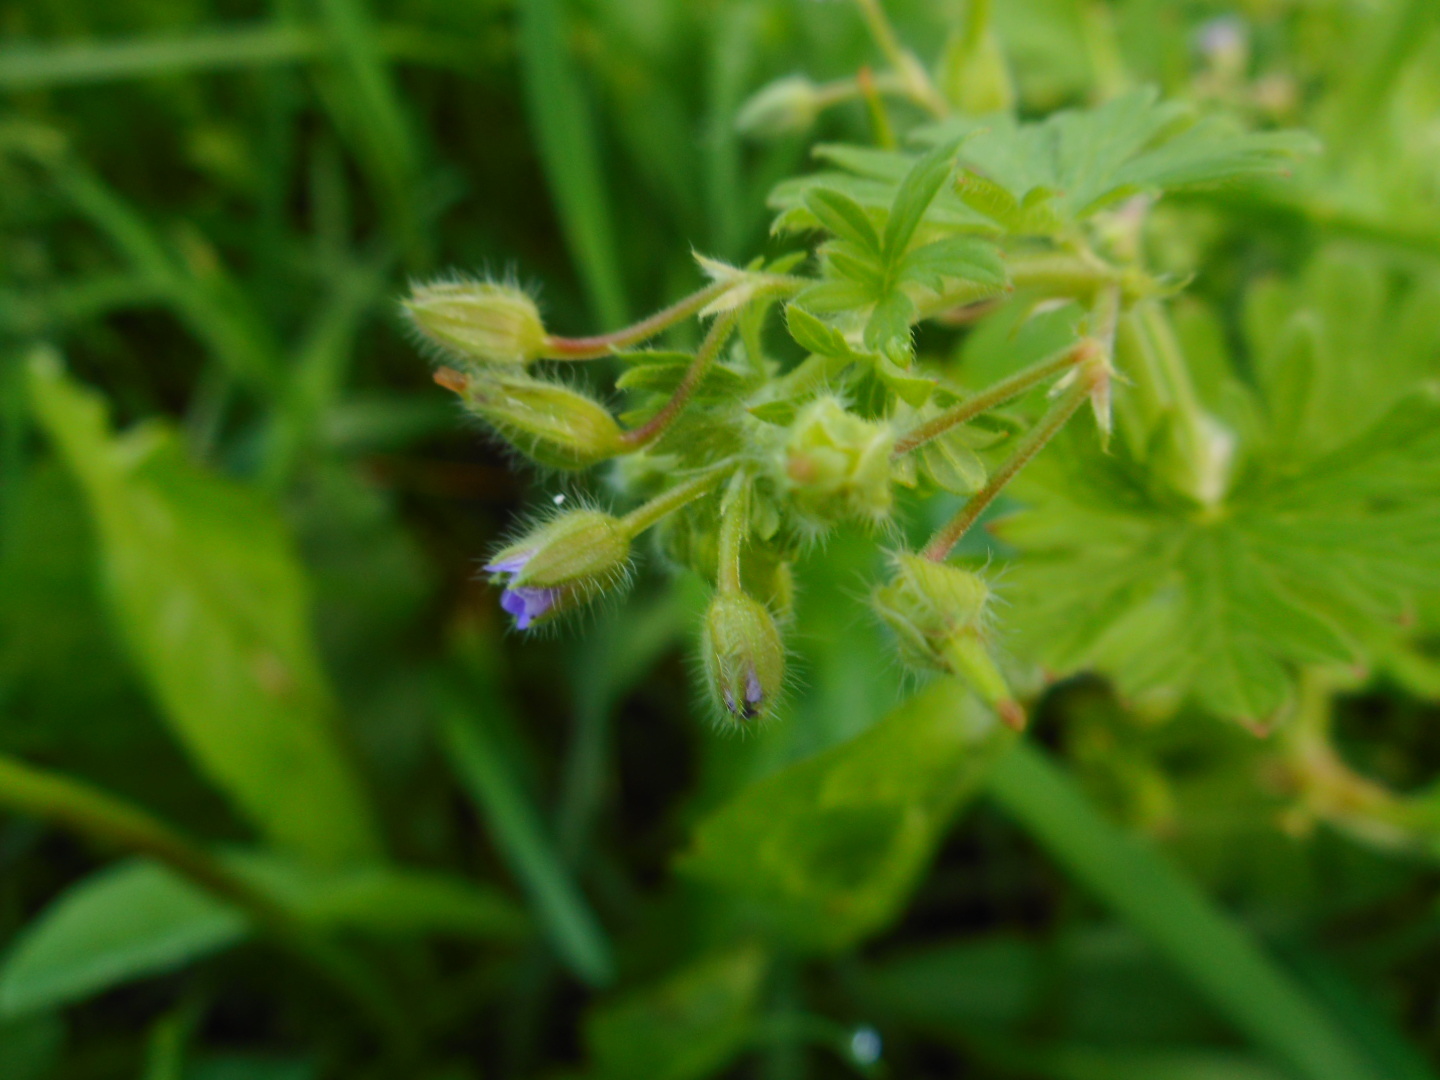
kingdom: Plantae
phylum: Tracheophyta
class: Magnoliopsida
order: Geraniales
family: Geraniaceae
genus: Geranium
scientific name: Geranium pusillum
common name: Small geranium
